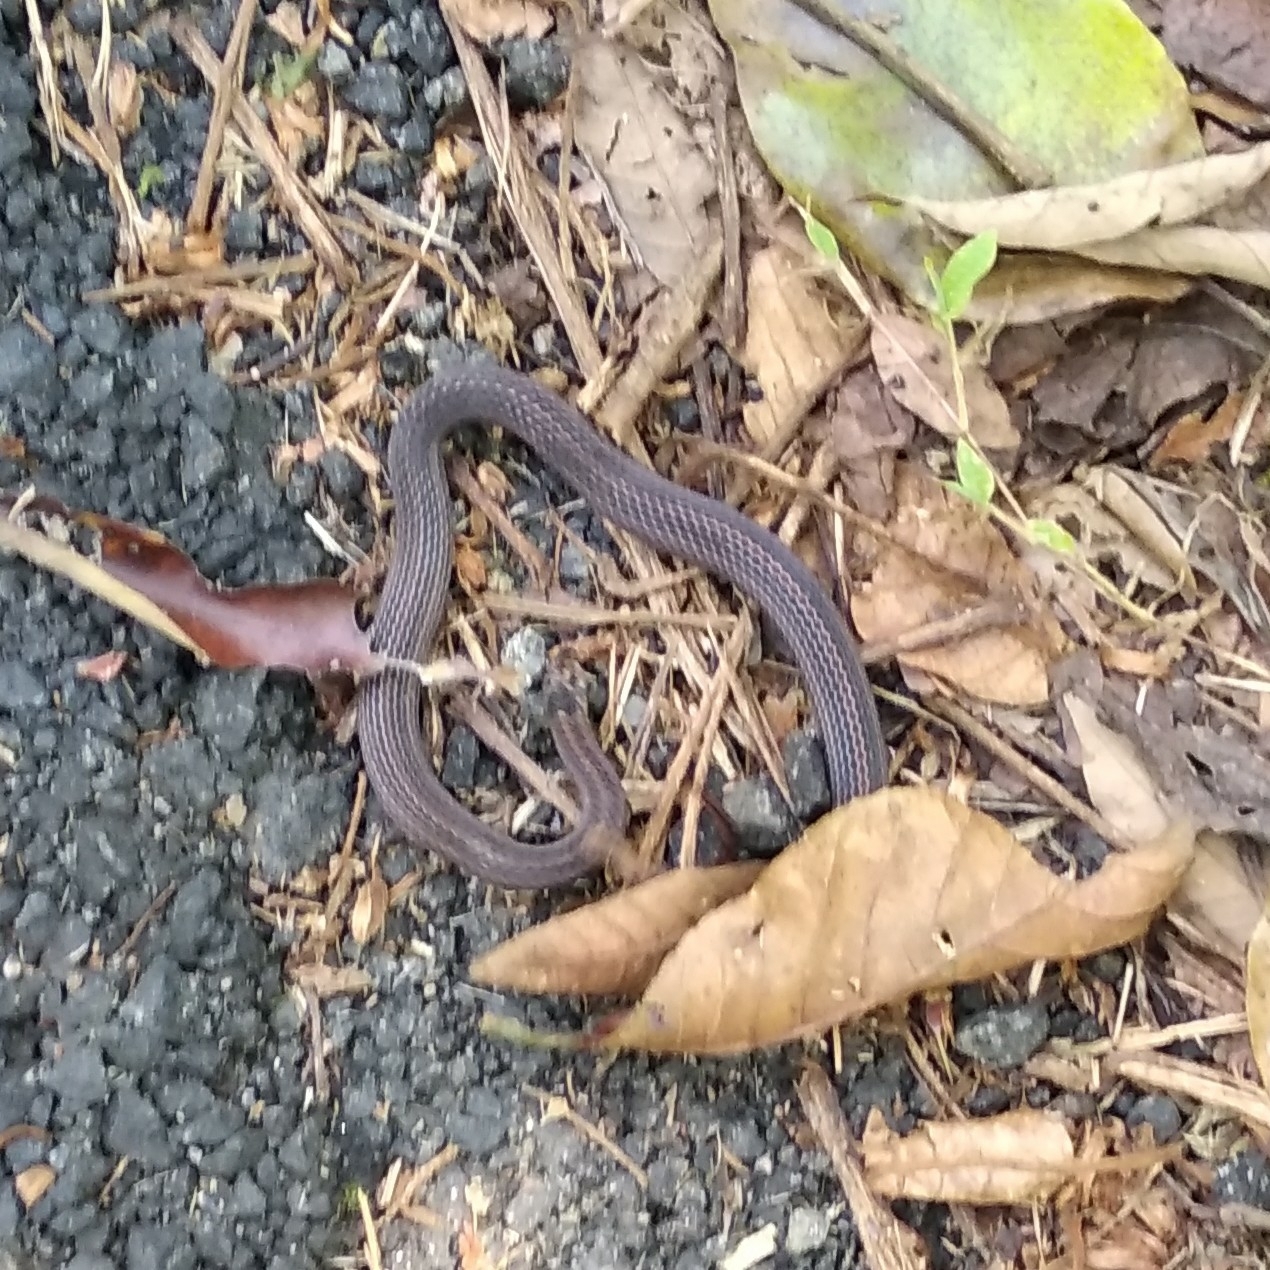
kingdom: Animalia
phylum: Chordata
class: Squamata
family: Colubridae
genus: Oligodon
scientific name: Oligodon brevicauda
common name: Short-tailed kukri snake
